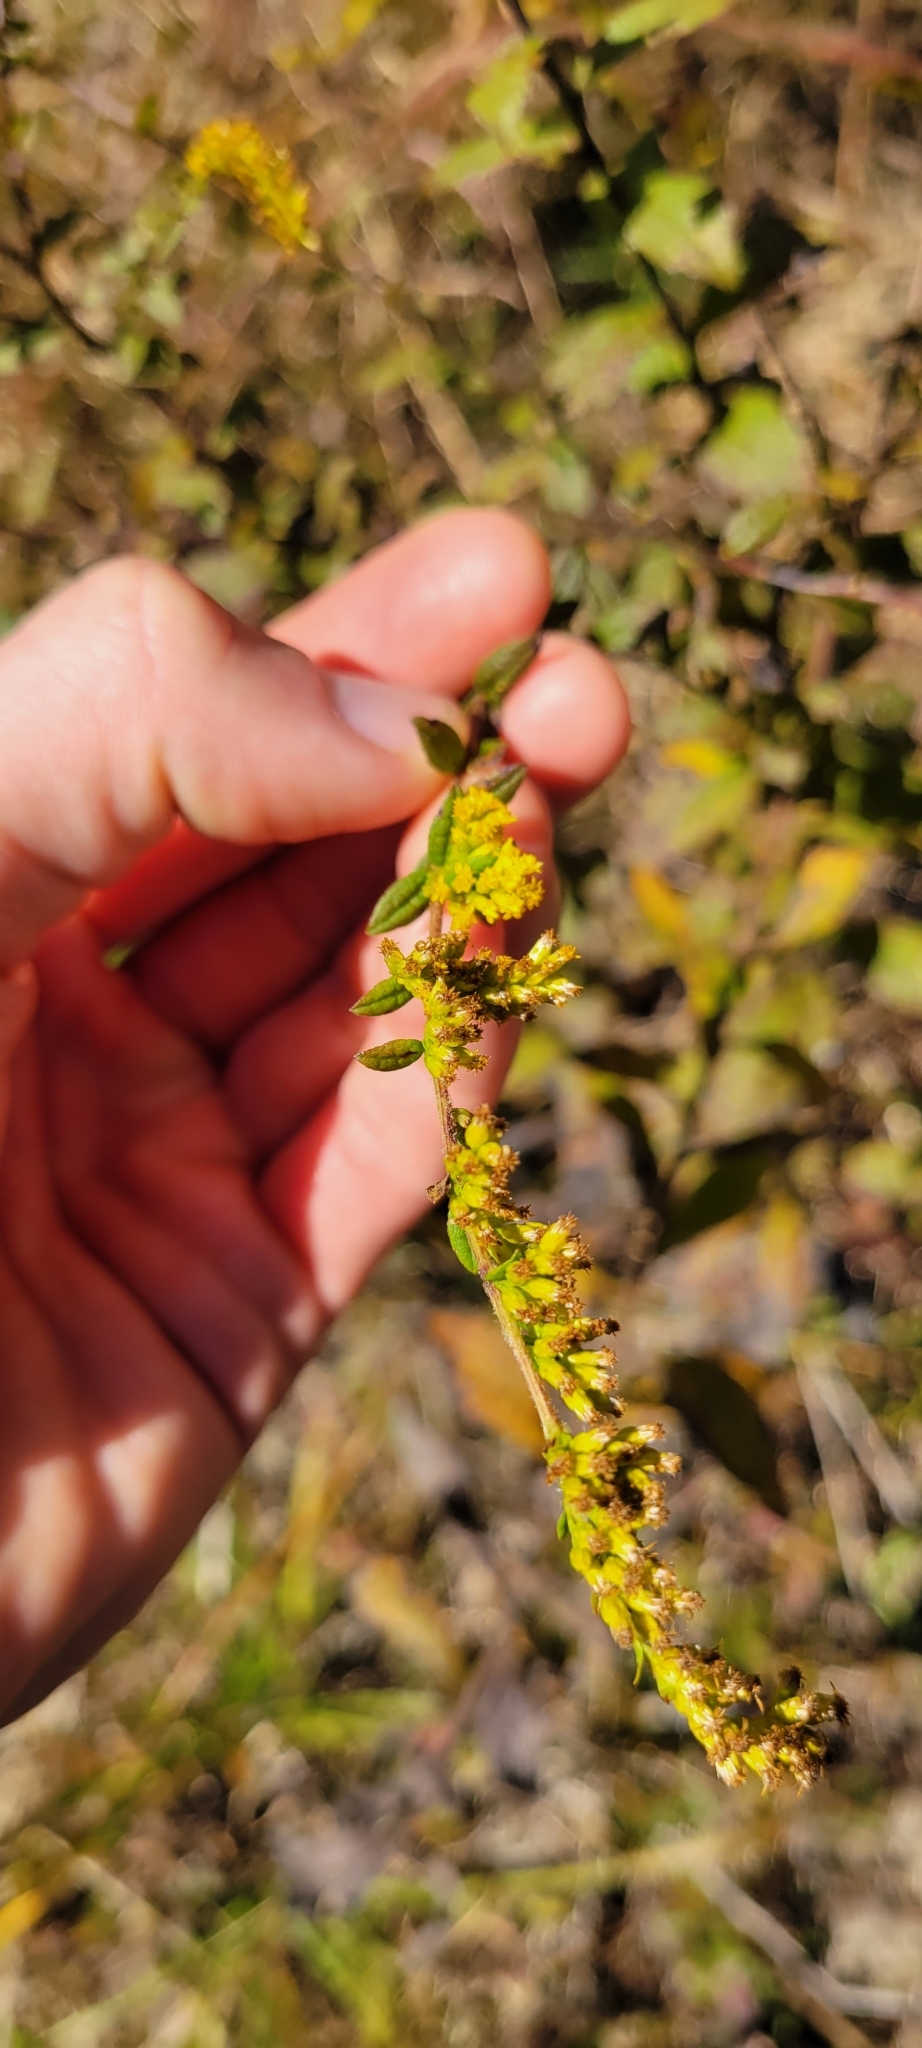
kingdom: Plantae
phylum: Tracheophyta
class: Magnoliopsida
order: Asterales
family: Asteraceae
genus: Solidago
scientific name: Solidago rugosa
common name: Rough-stemmed goldenrod
